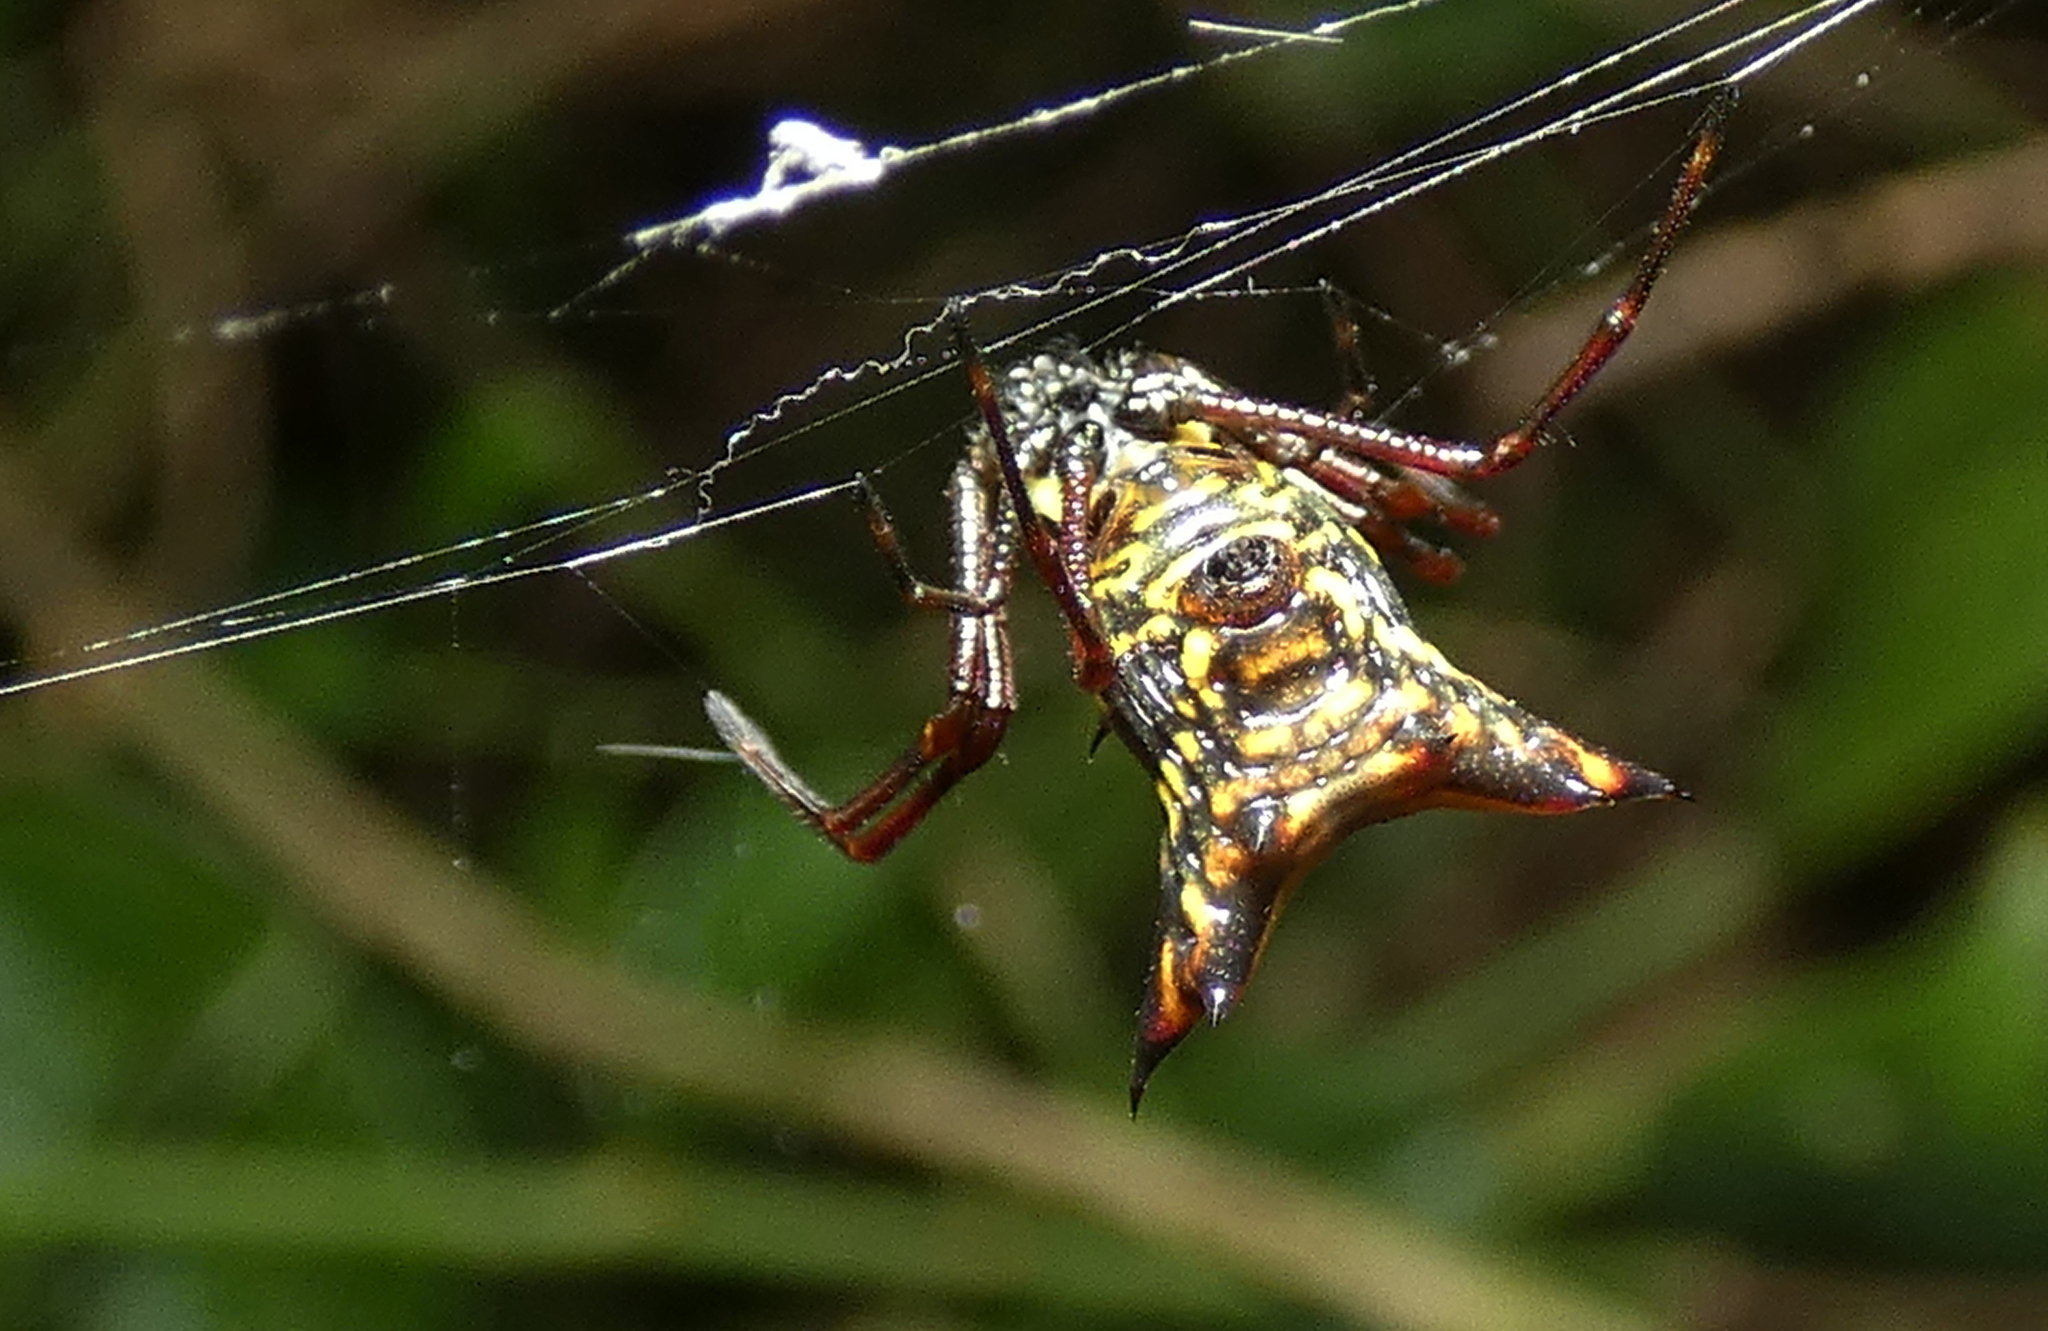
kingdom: Animalia
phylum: Arthropoda
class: Arachnida
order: Araneae
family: Araneidae
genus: Micrathena
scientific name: Micrathena fissispina
